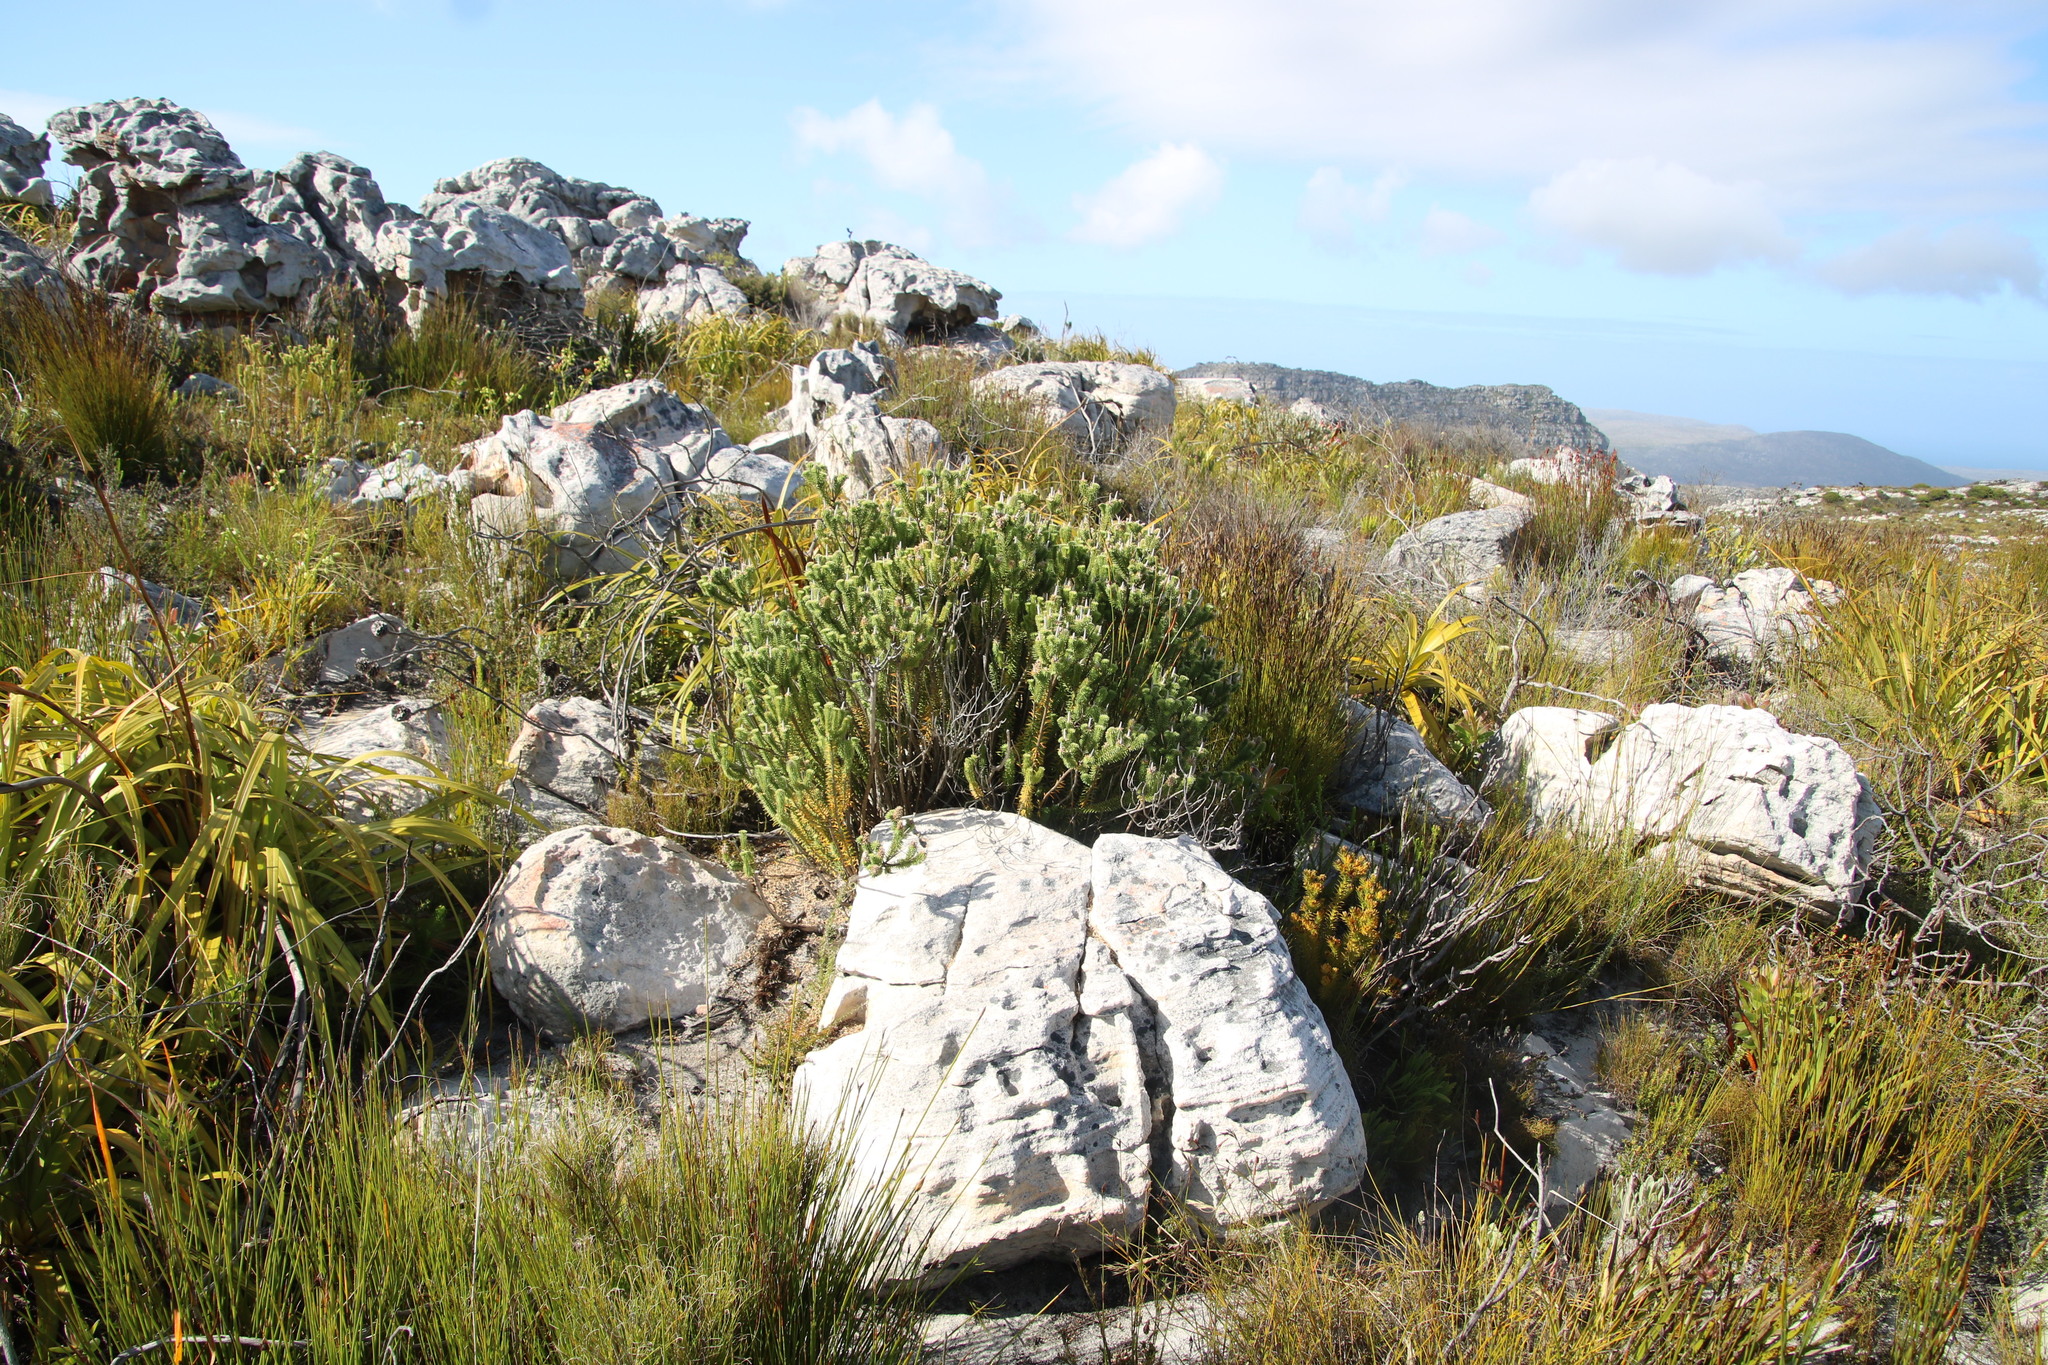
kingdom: Plantae
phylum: Tracheophyta
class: Magnoliopsida
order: Lamiales
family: Stilbaceae
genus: Stilbe
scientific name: Stilbe vestita
